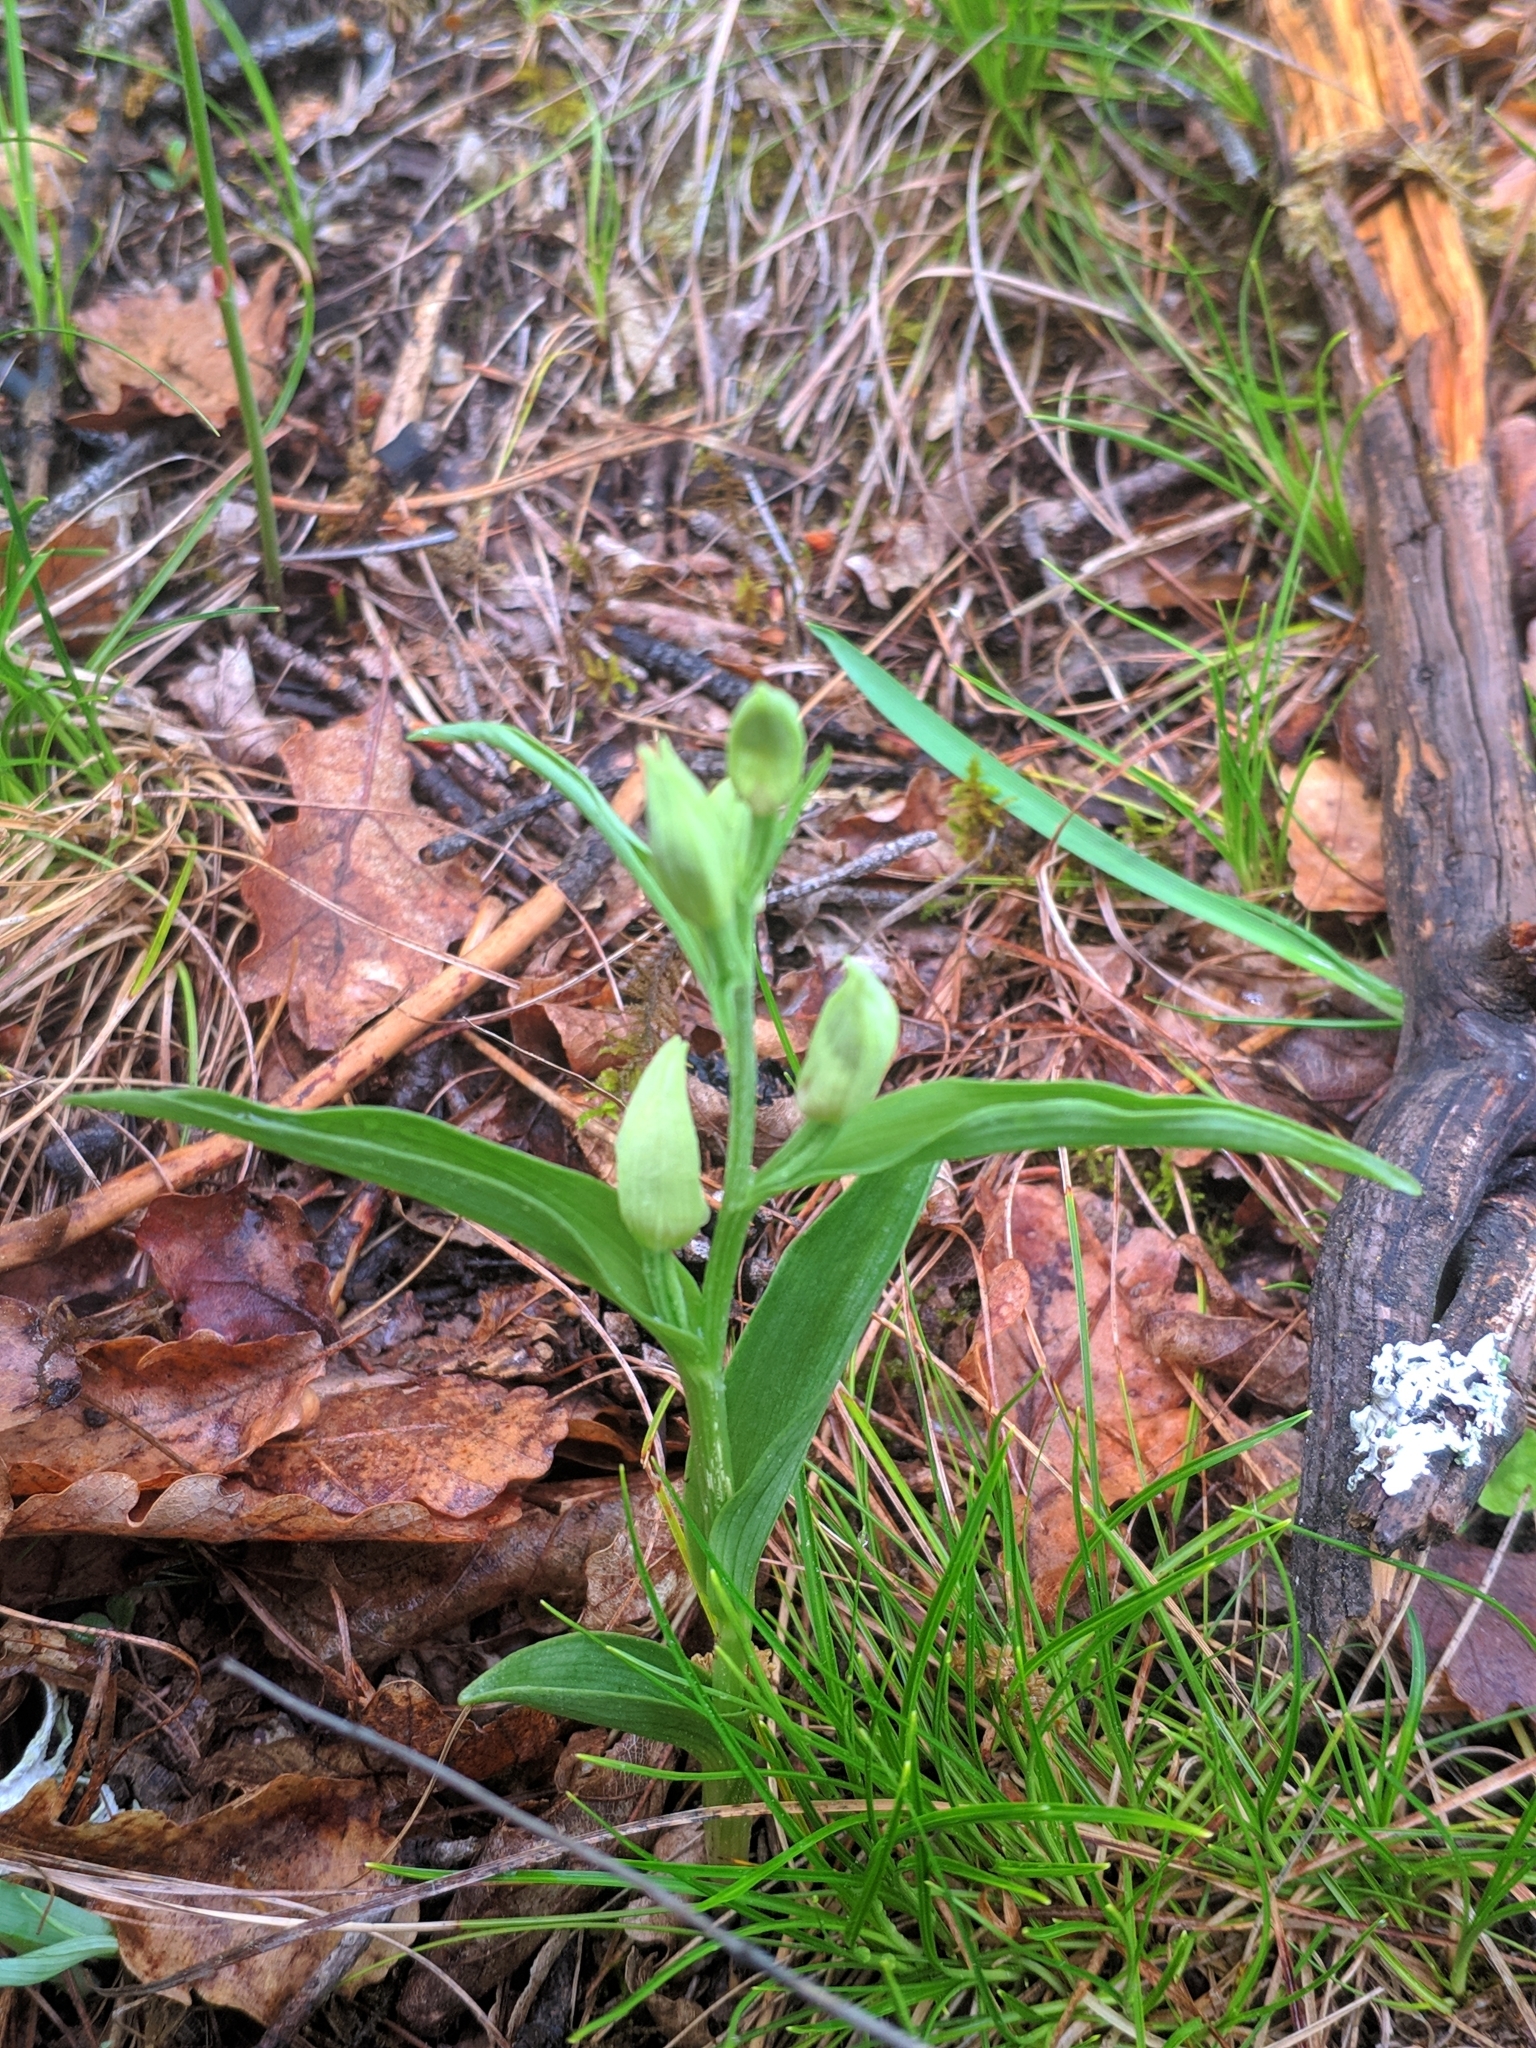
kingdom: Plantae
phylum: Tracheophyta
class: Liliopsida
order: Asparagales
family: Orchidaceae
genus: Cephalanthera
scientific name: Cephalanthera damasonium
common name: White helleborine
